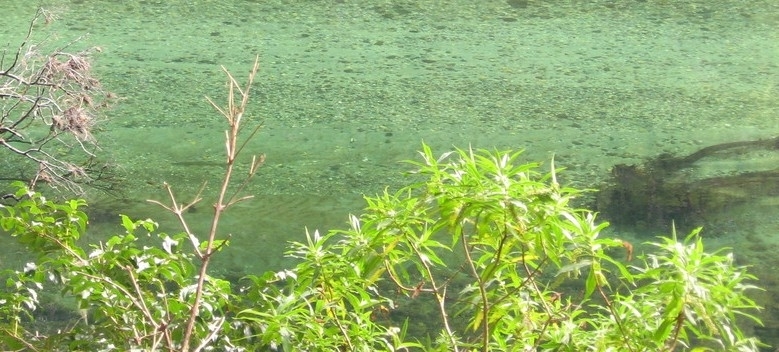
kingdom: Plantae
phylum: Tracheophyta
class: Magnoliopsida
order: Lamiales
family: Plantaginaceae
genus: Veronica
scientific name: Veronica salicifolia
